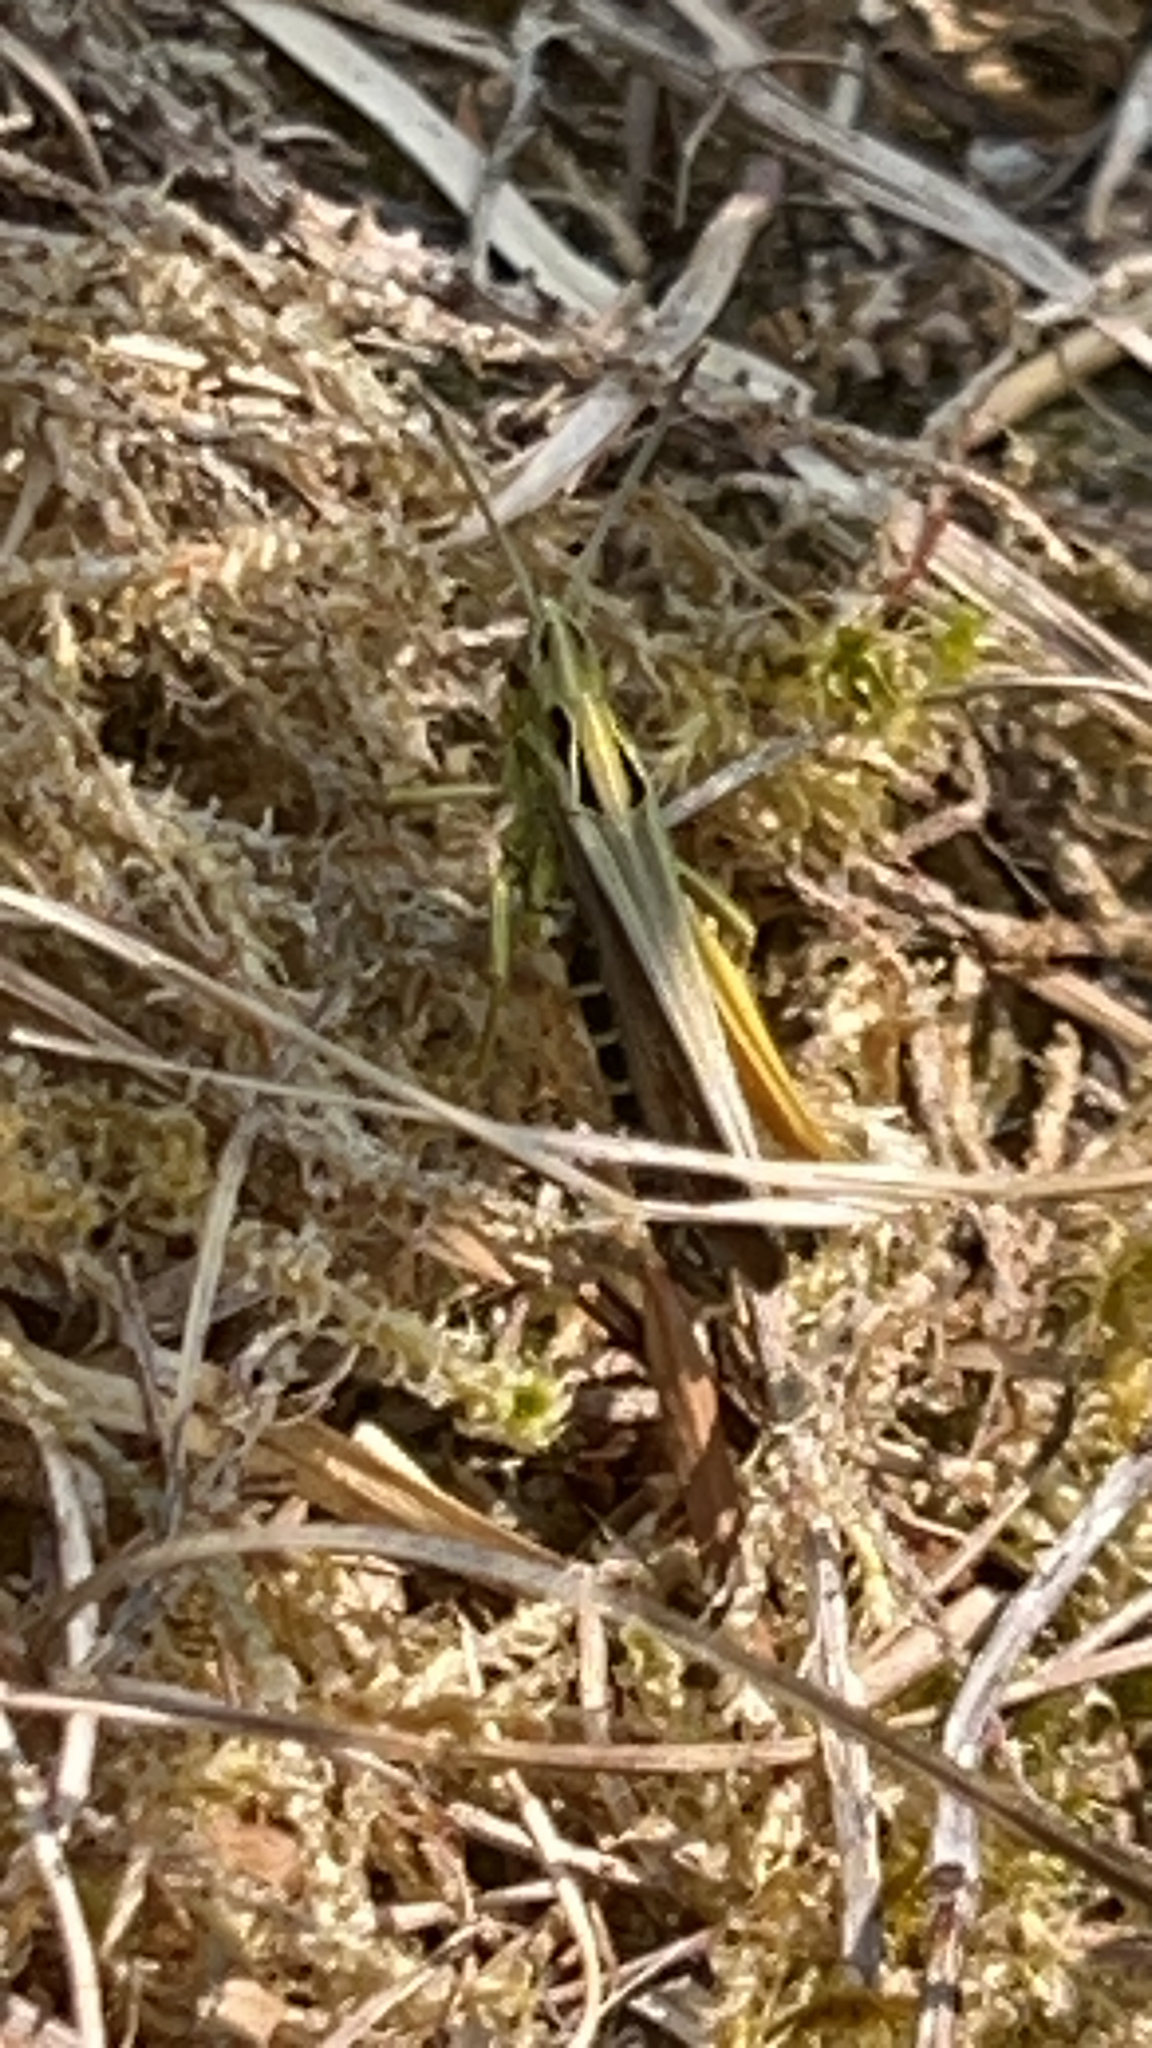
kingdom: Animalia
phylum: Arthropoda
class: Insecta
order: Orthoptera
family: Acrididae
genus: Omocestus
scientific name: Omocestus viridulus
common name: Common green grasshopper
